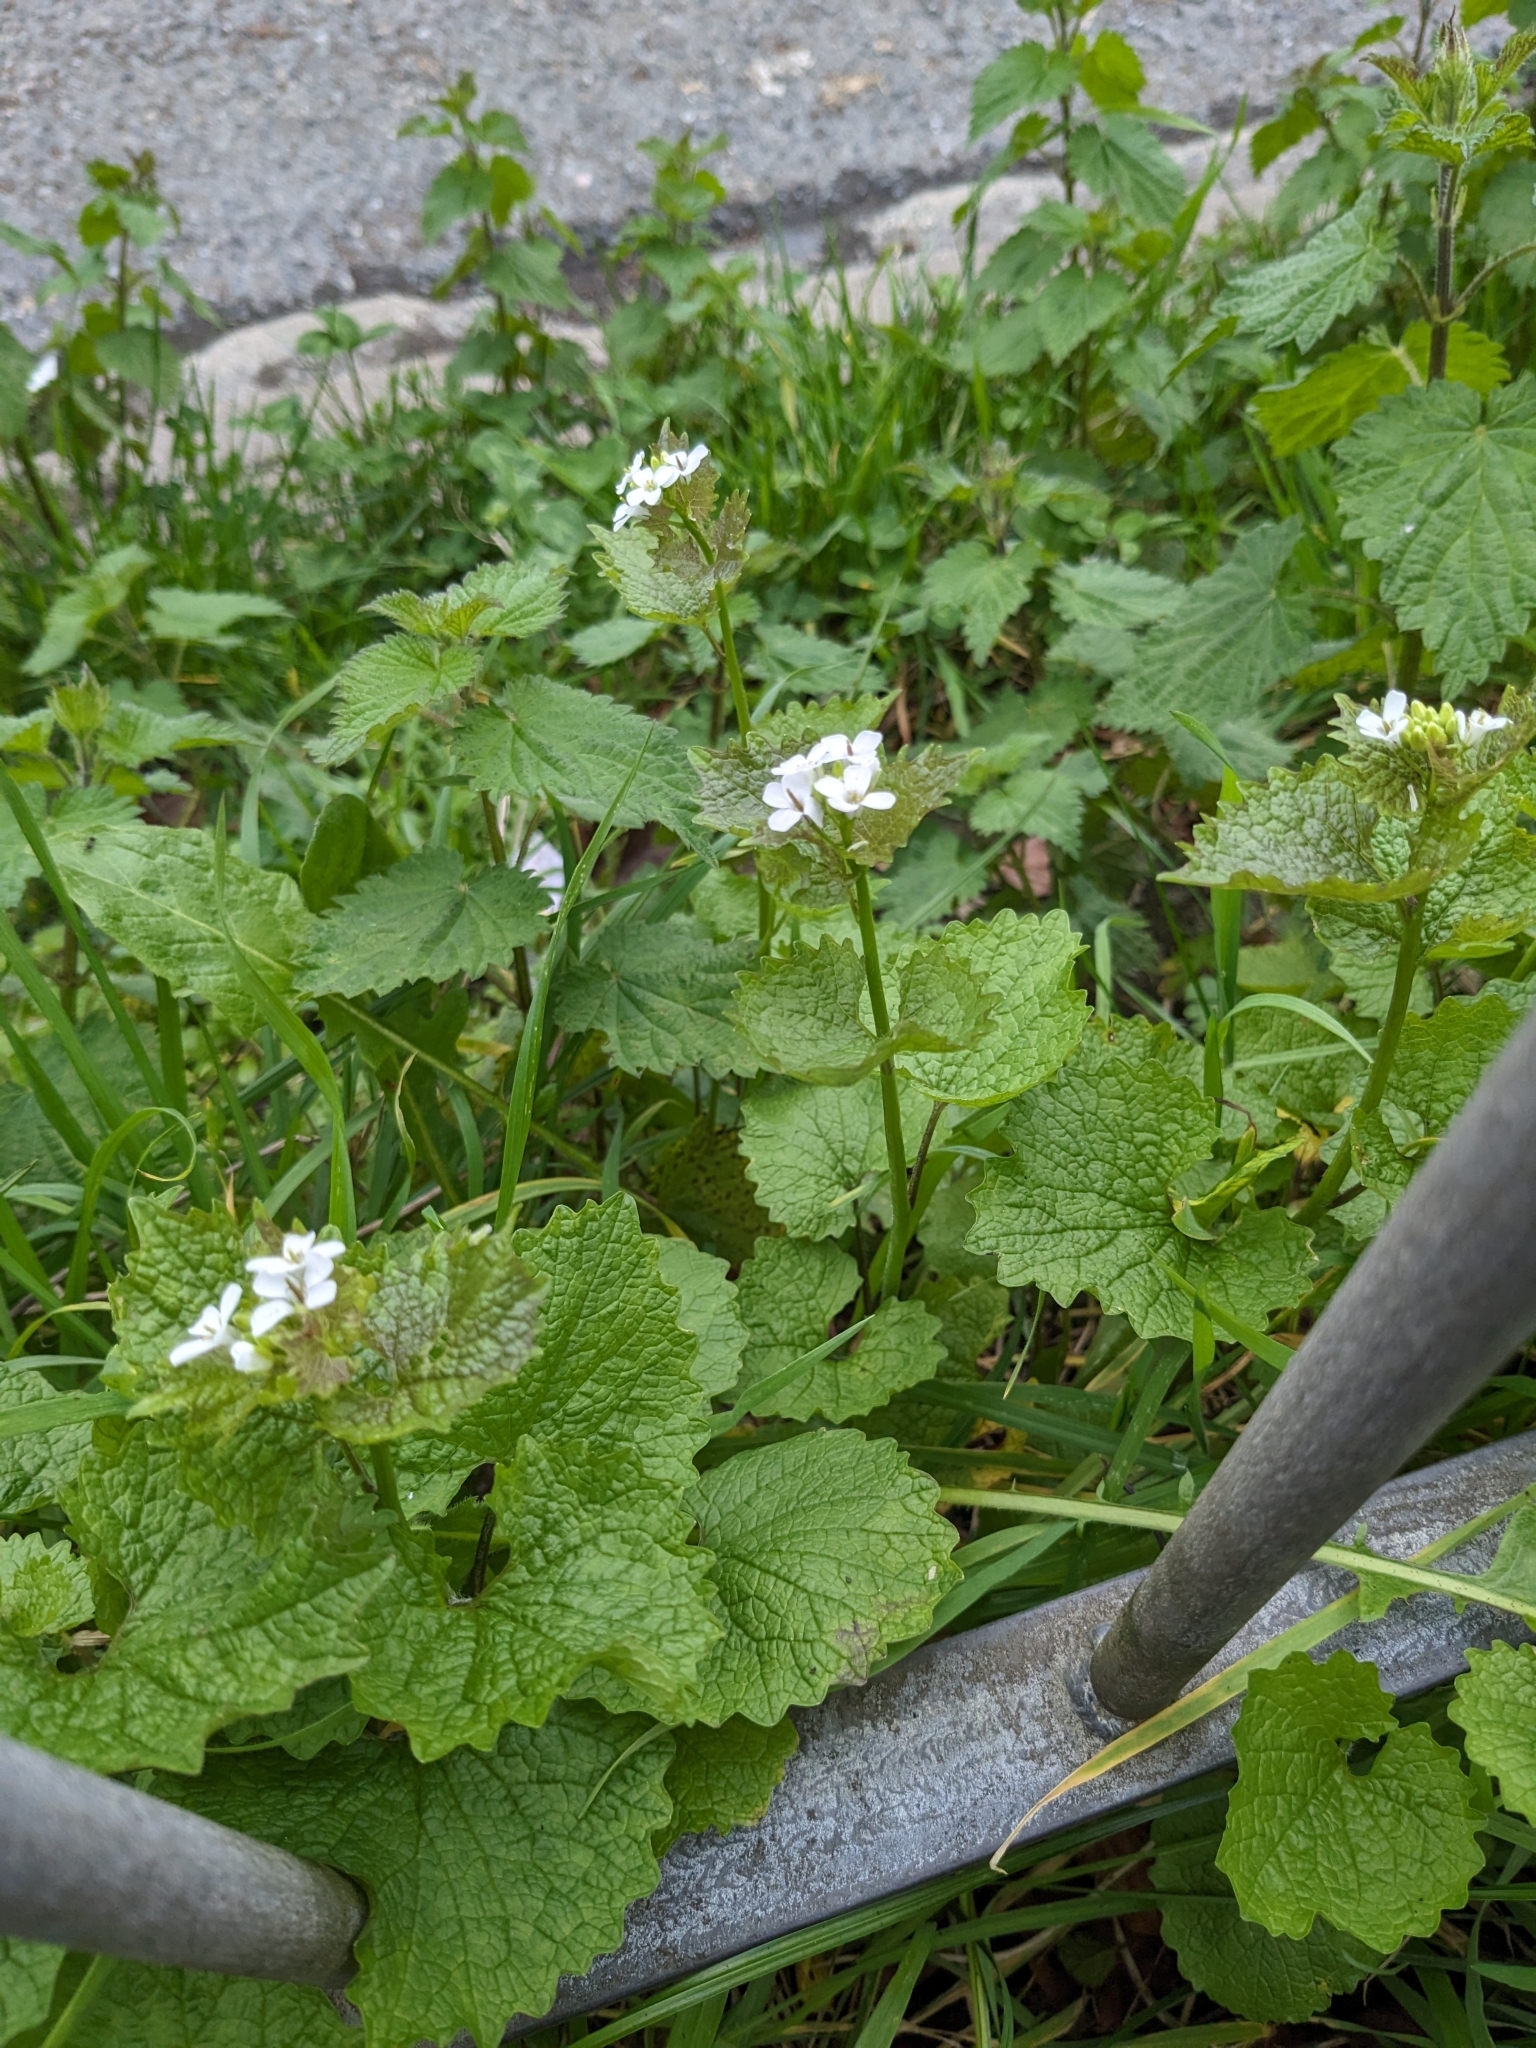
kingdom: Plantae
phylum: Tracheophyta
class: Magnoliopsida
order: Brassicales
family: Brassicaceae
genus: Alliaria
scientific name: Alliaria petiolata
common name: Garlic mustard
